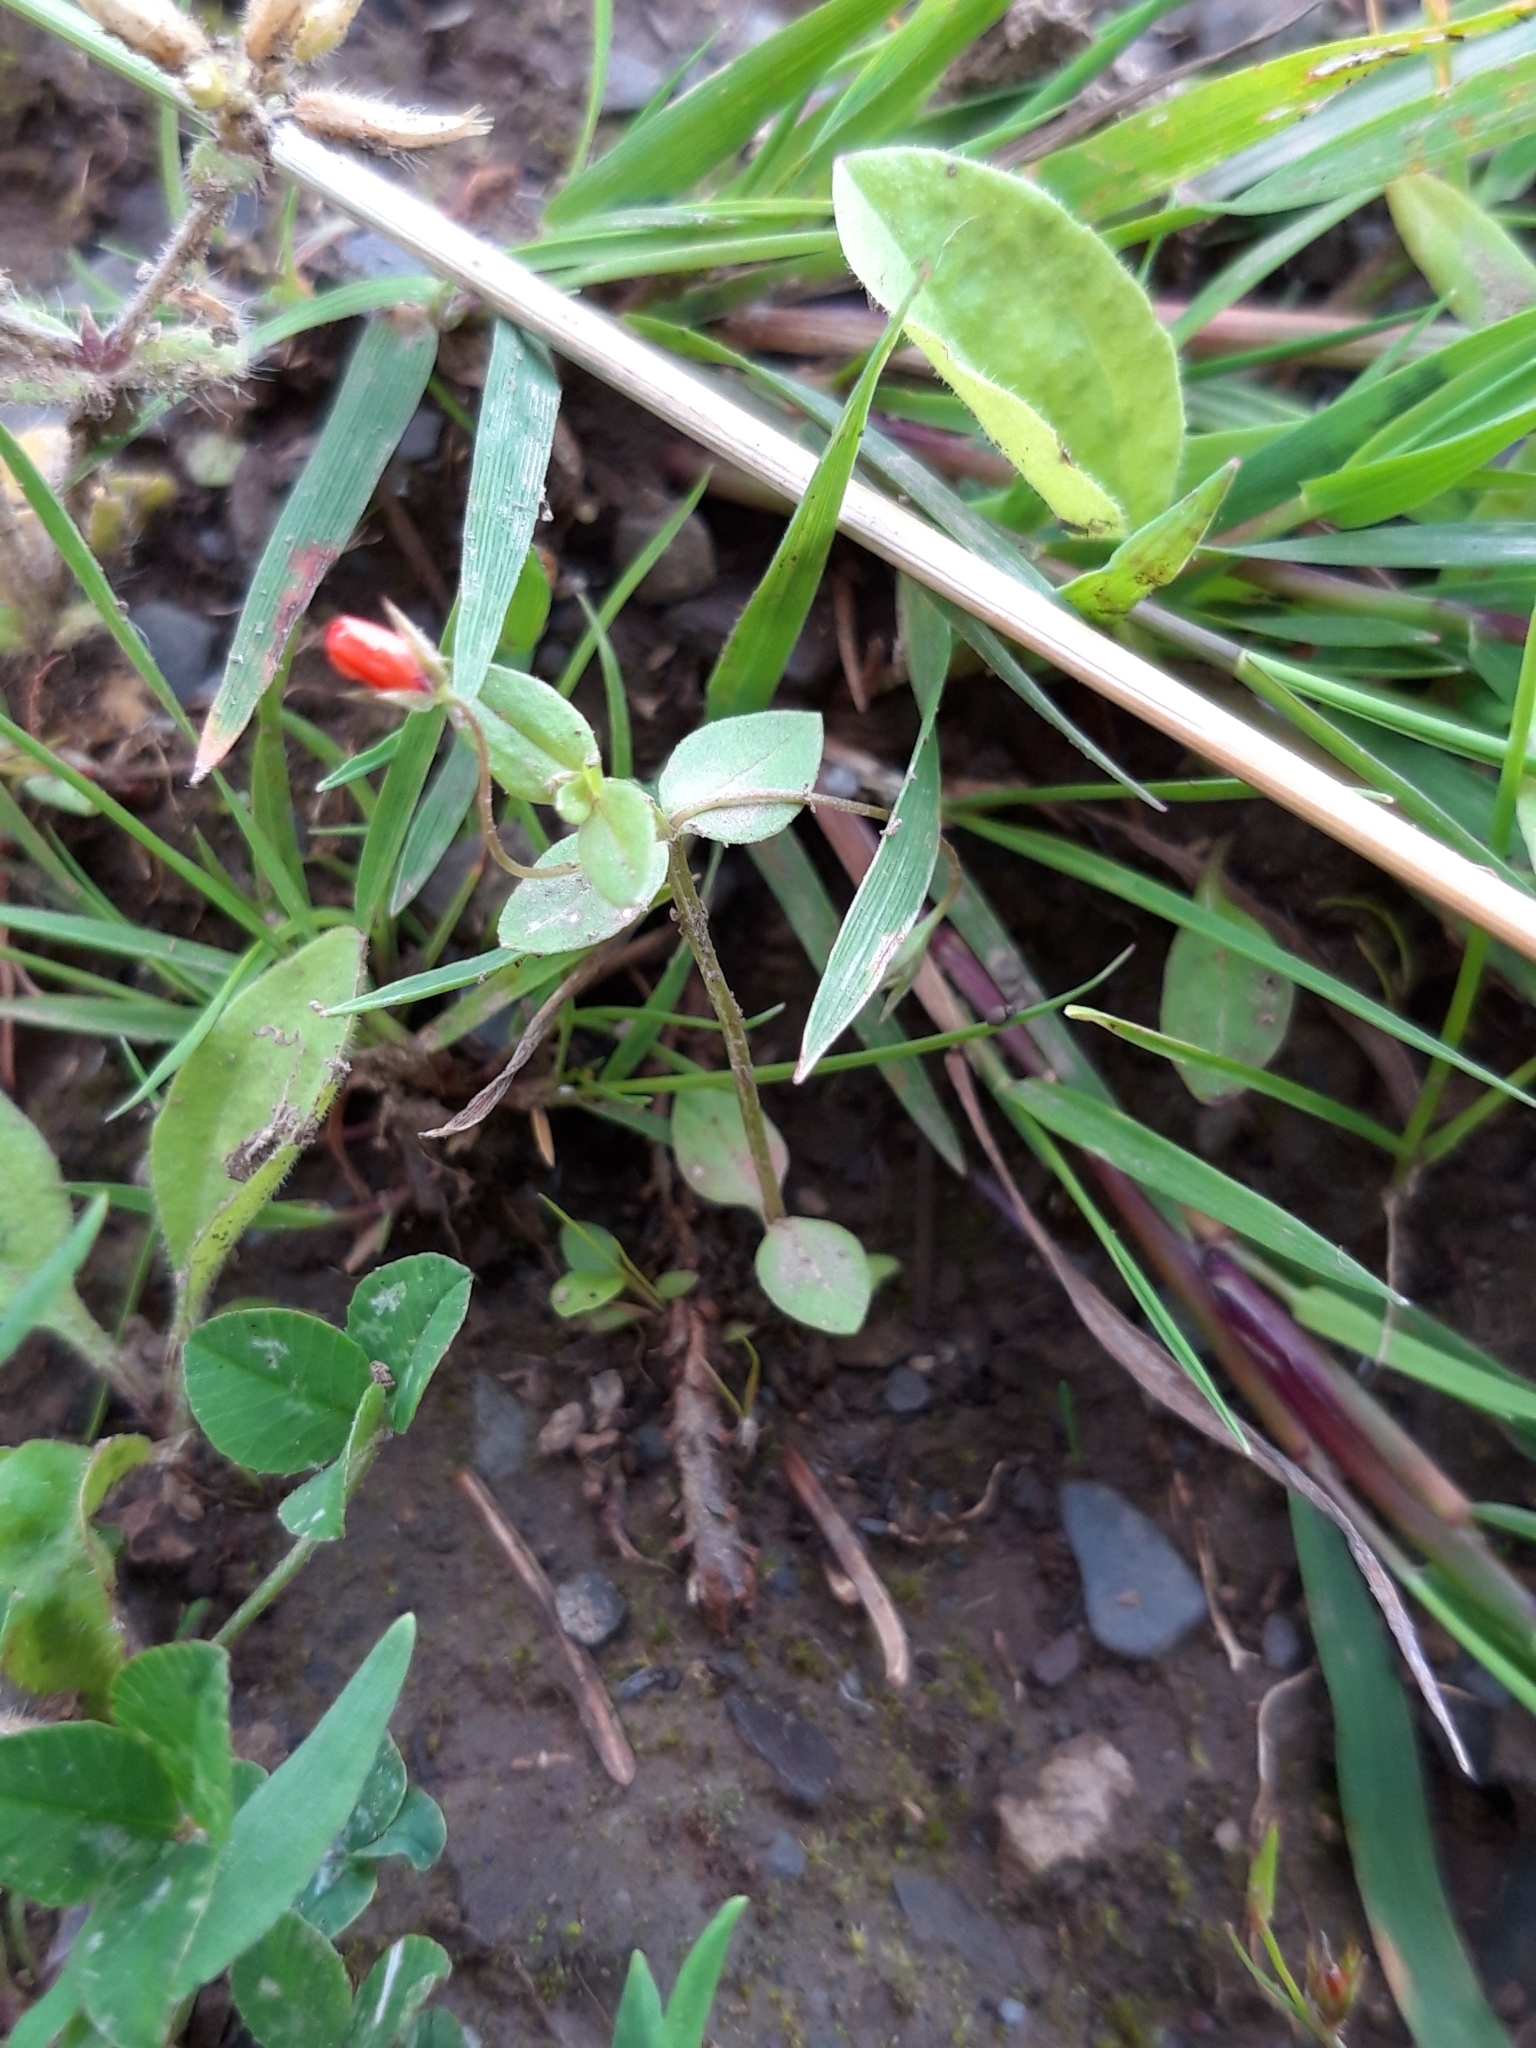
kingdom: Plantae
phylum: Tracheophyta
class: Magnoliopsida
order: Ericales
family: Primulaceae
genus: Lysimachia
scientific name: Lysimachia arvensis
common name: Scarlet pimpernel
